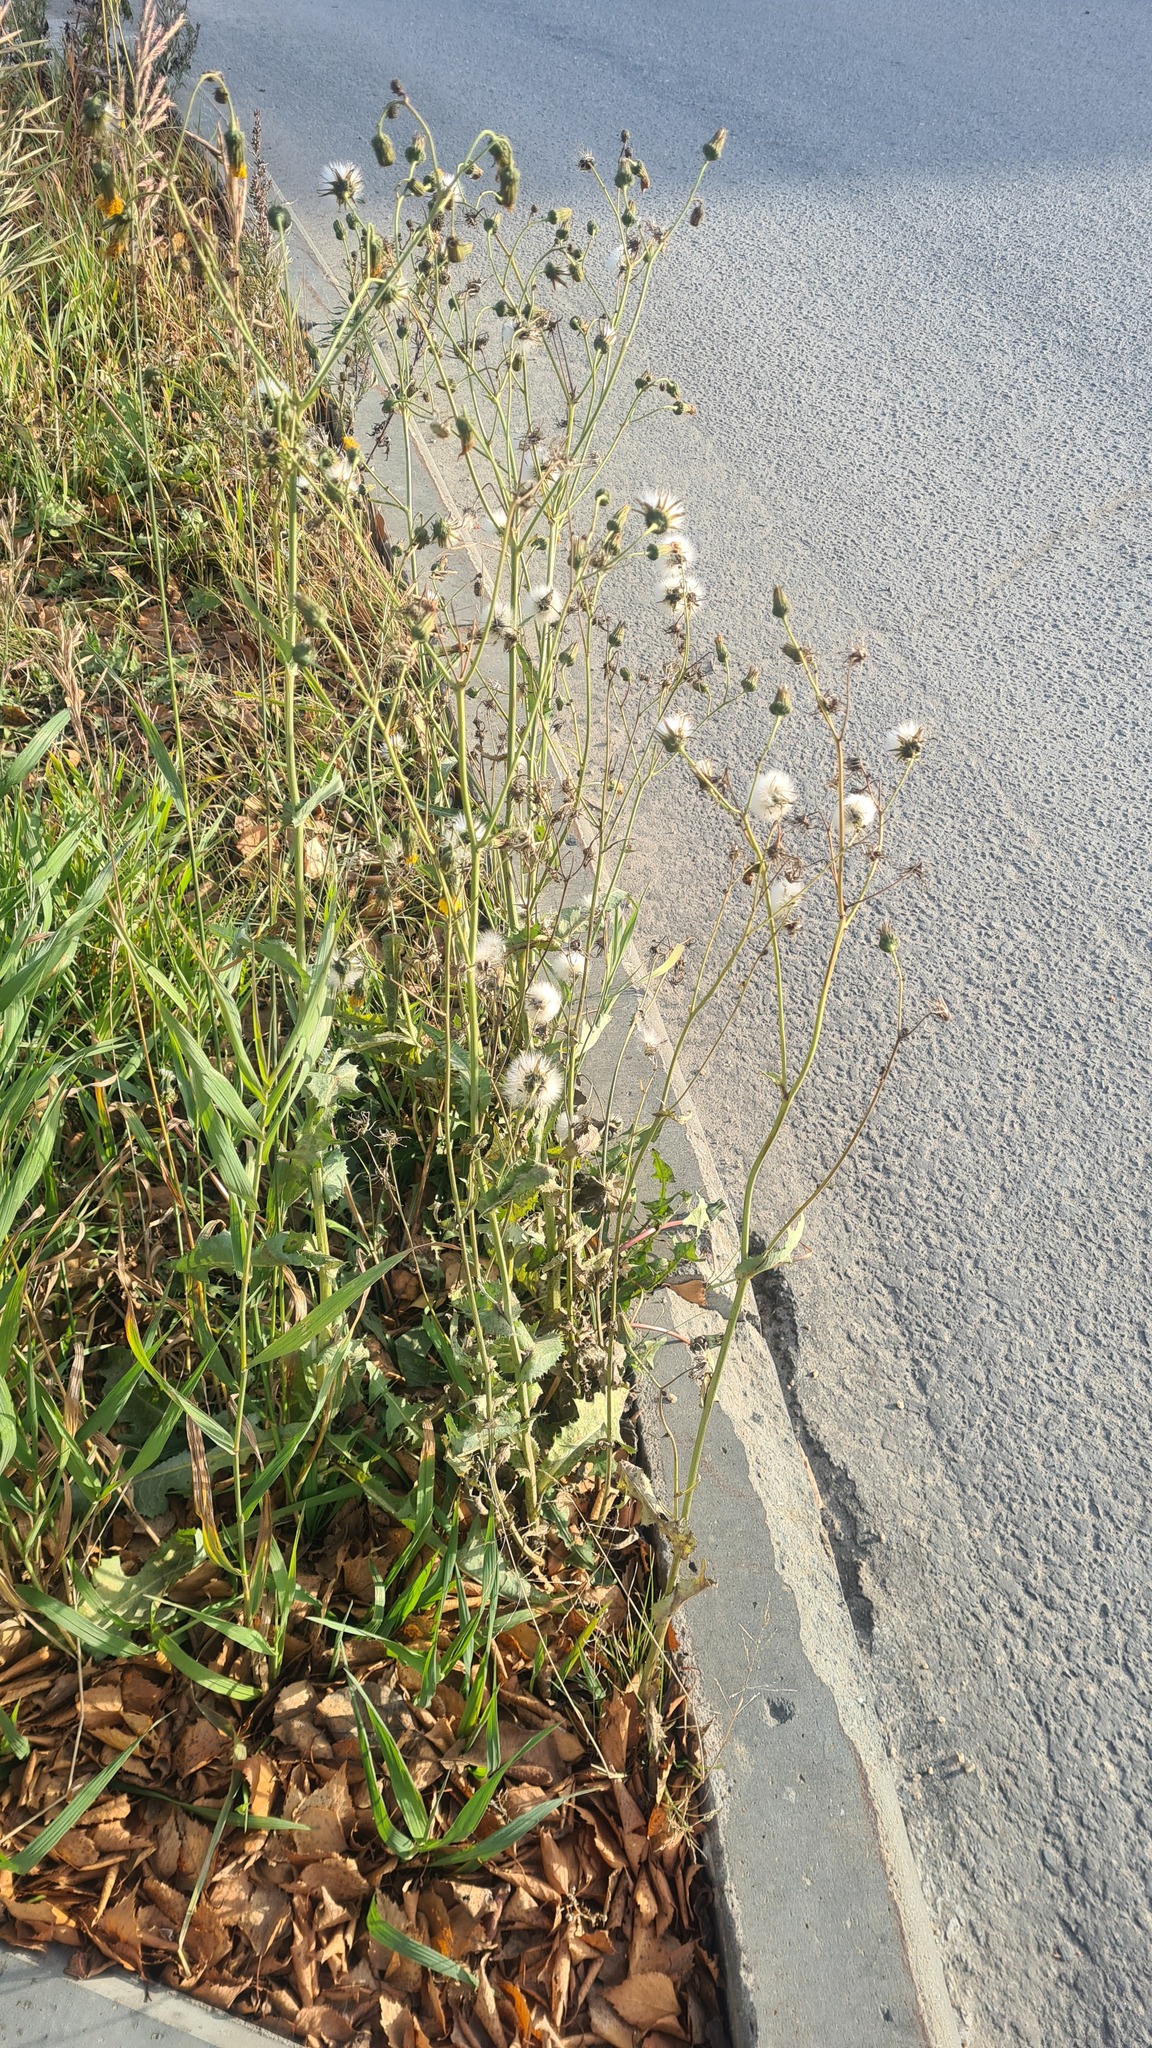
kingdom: Plantae
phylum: Tracheophyta
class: Magnoliopsida
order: Asterales
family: Asteraceae
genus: Sonchus
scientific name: Sonchus arvensis
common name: Perennial sow-thistle
